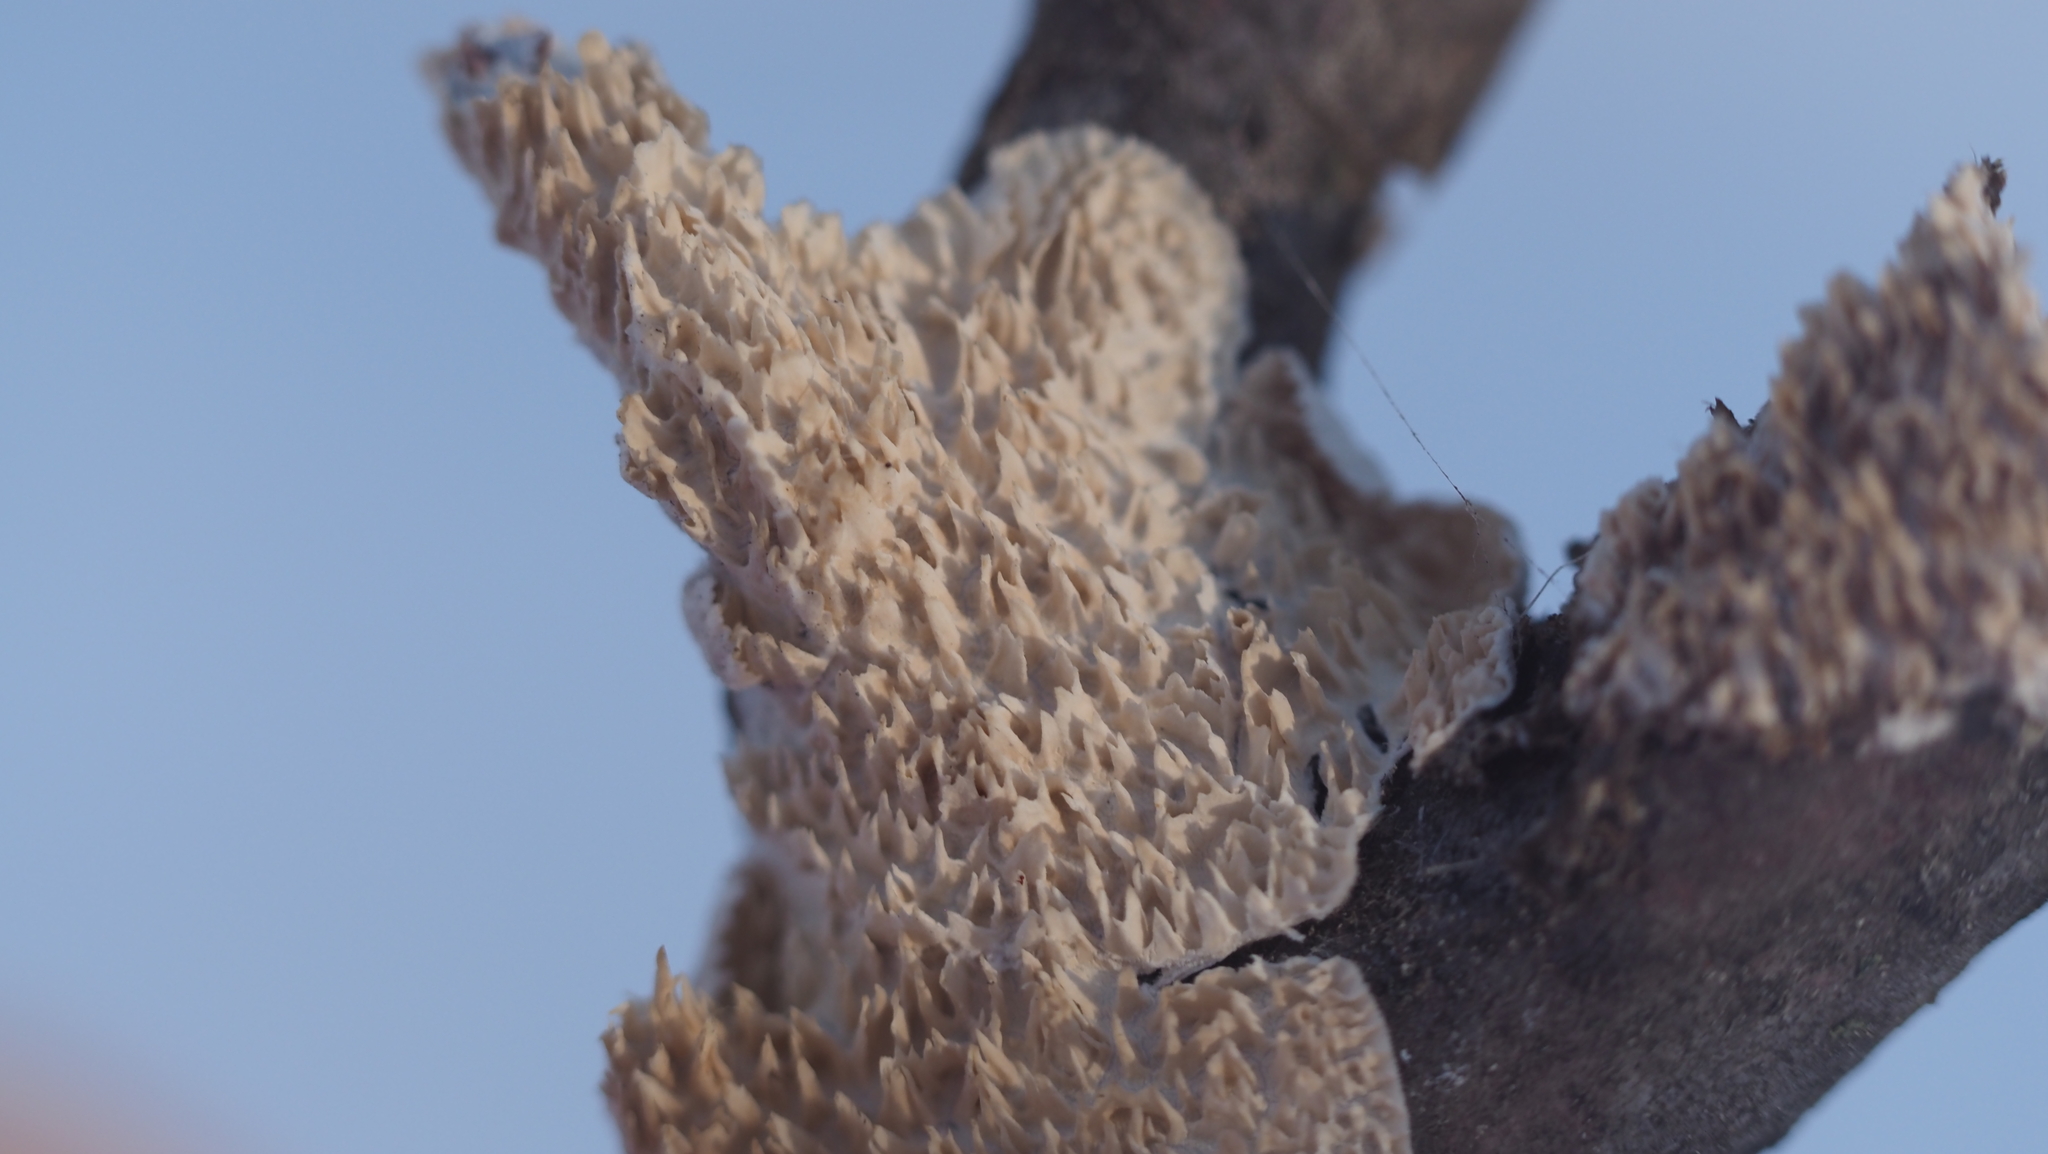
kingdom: Fungi
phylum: Basidiomycota
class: Agaricomycetes
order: Polyporales
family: Irpicaceae
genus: Irpex
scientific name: Irpex lacteus
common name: Milk-white toothed polypore
